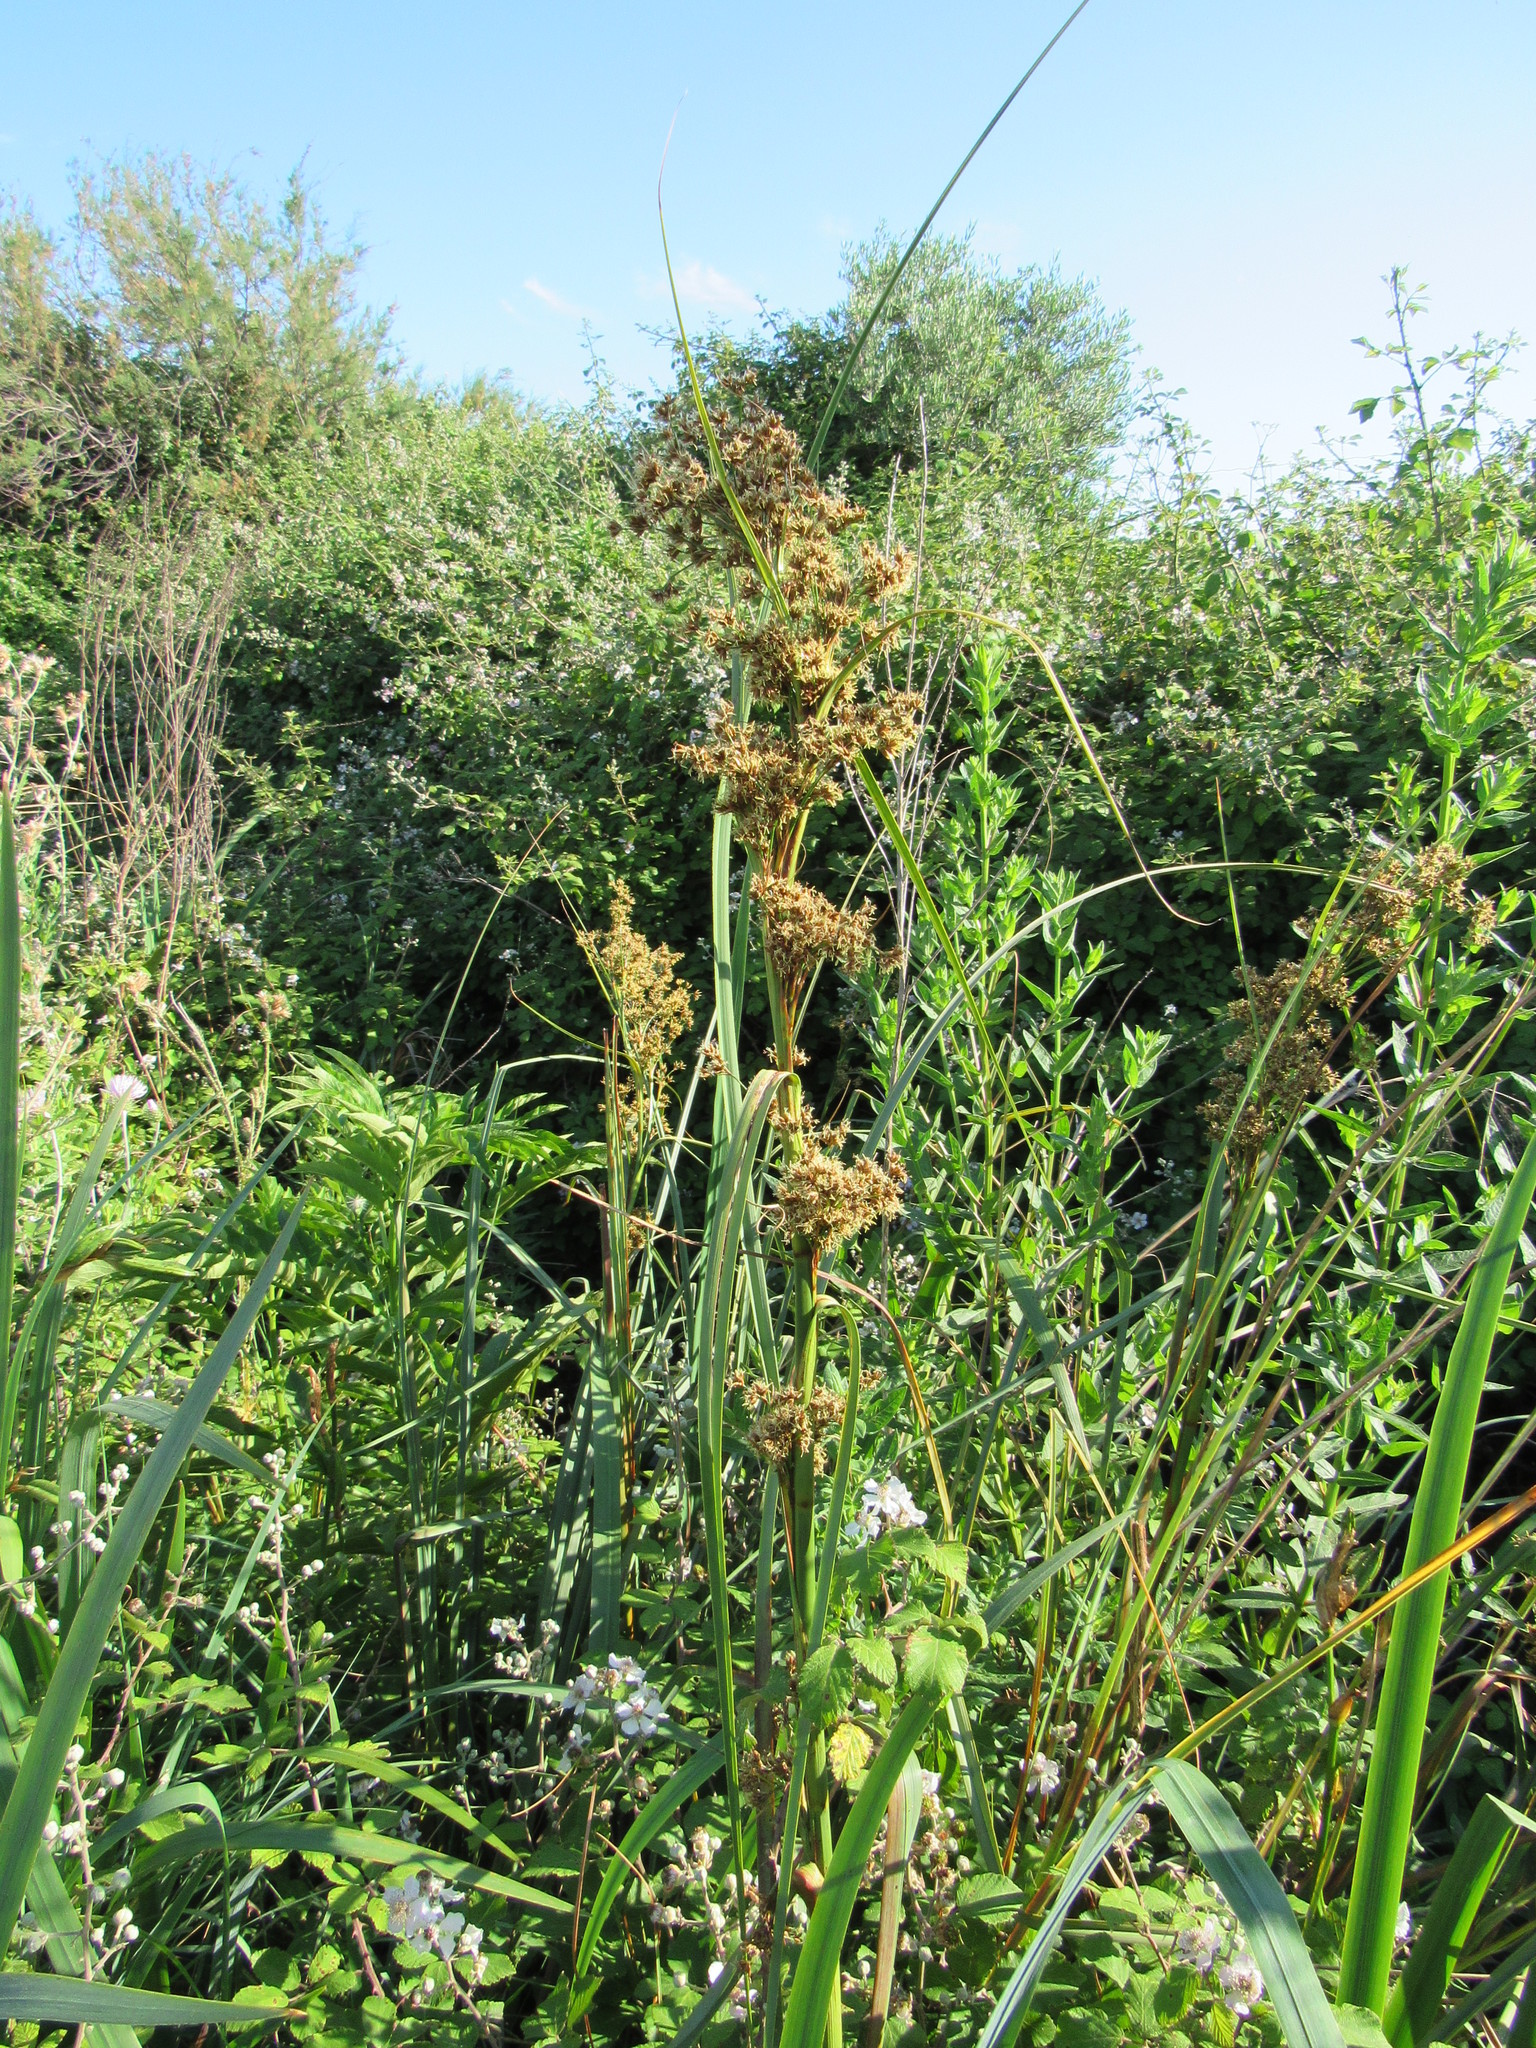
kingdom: Plantae
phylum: Tracheophyta
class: Liliopsida
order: Poales
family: Cyperaceae
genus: Cladium
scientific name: Cladium mariscus
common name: Great fen-sedge
